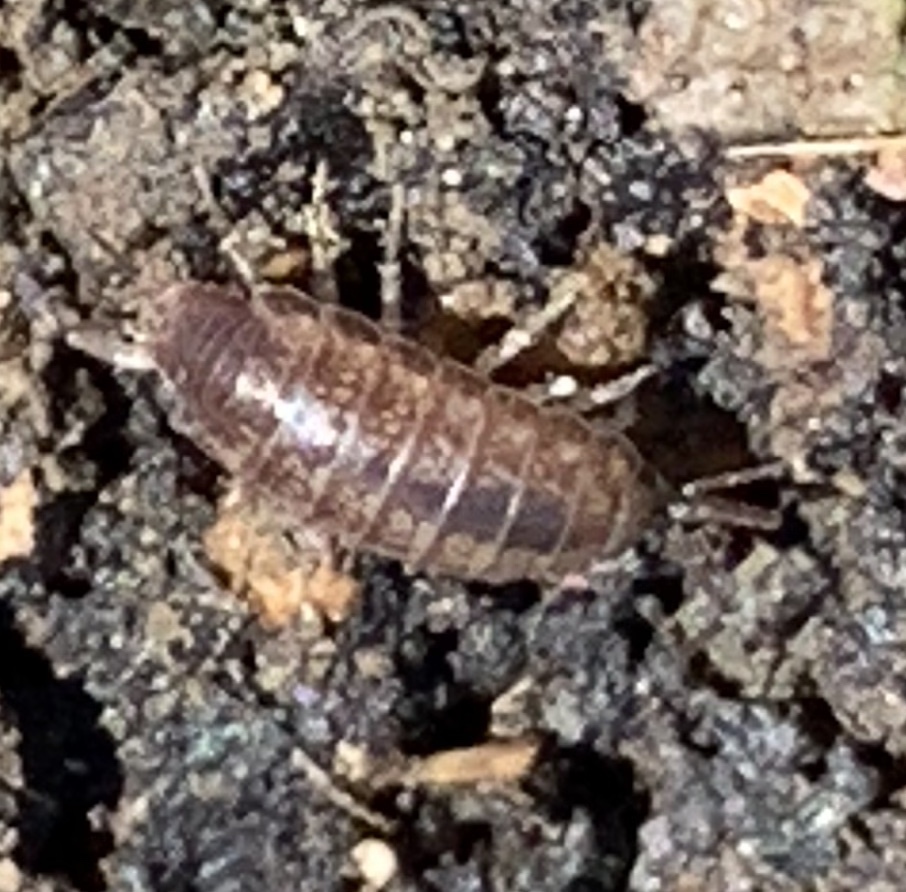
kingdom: Animalia
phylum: Arthropoda
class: Malacostraca
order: Isopoda
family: Halophilosciidae
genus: Littorophiloscia
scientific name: Littorophiloscia richardsonae
